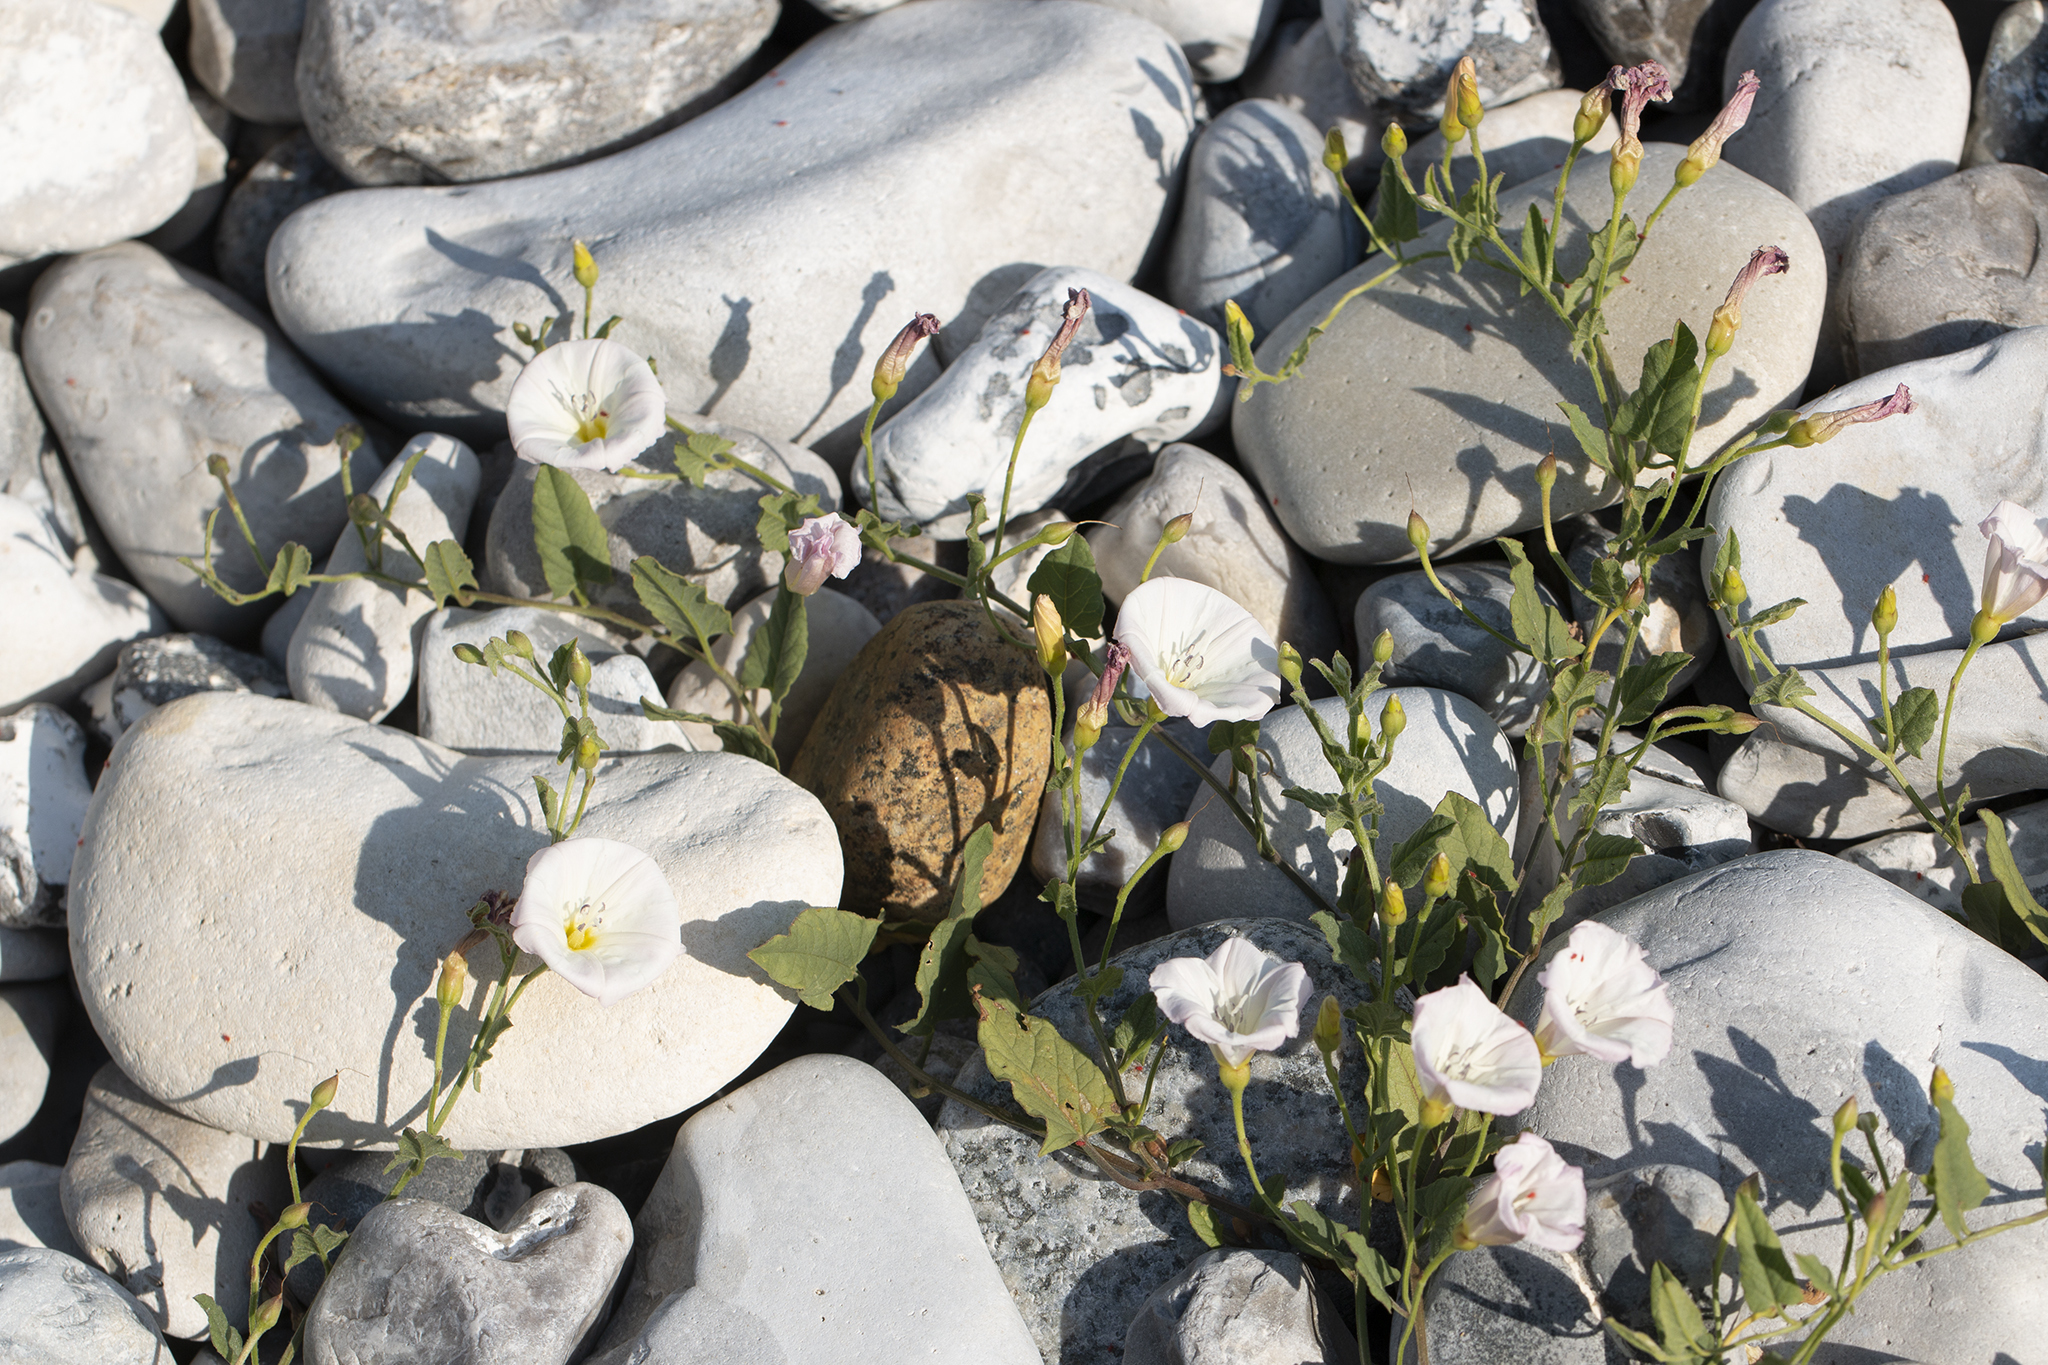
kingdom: Plantae
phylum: Tracheophyta
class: Magnoliopsida
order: Solanales
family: Convolvulaceae
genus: Convolvulus
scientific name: Convolvulus arvensis
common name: Field bindweed
